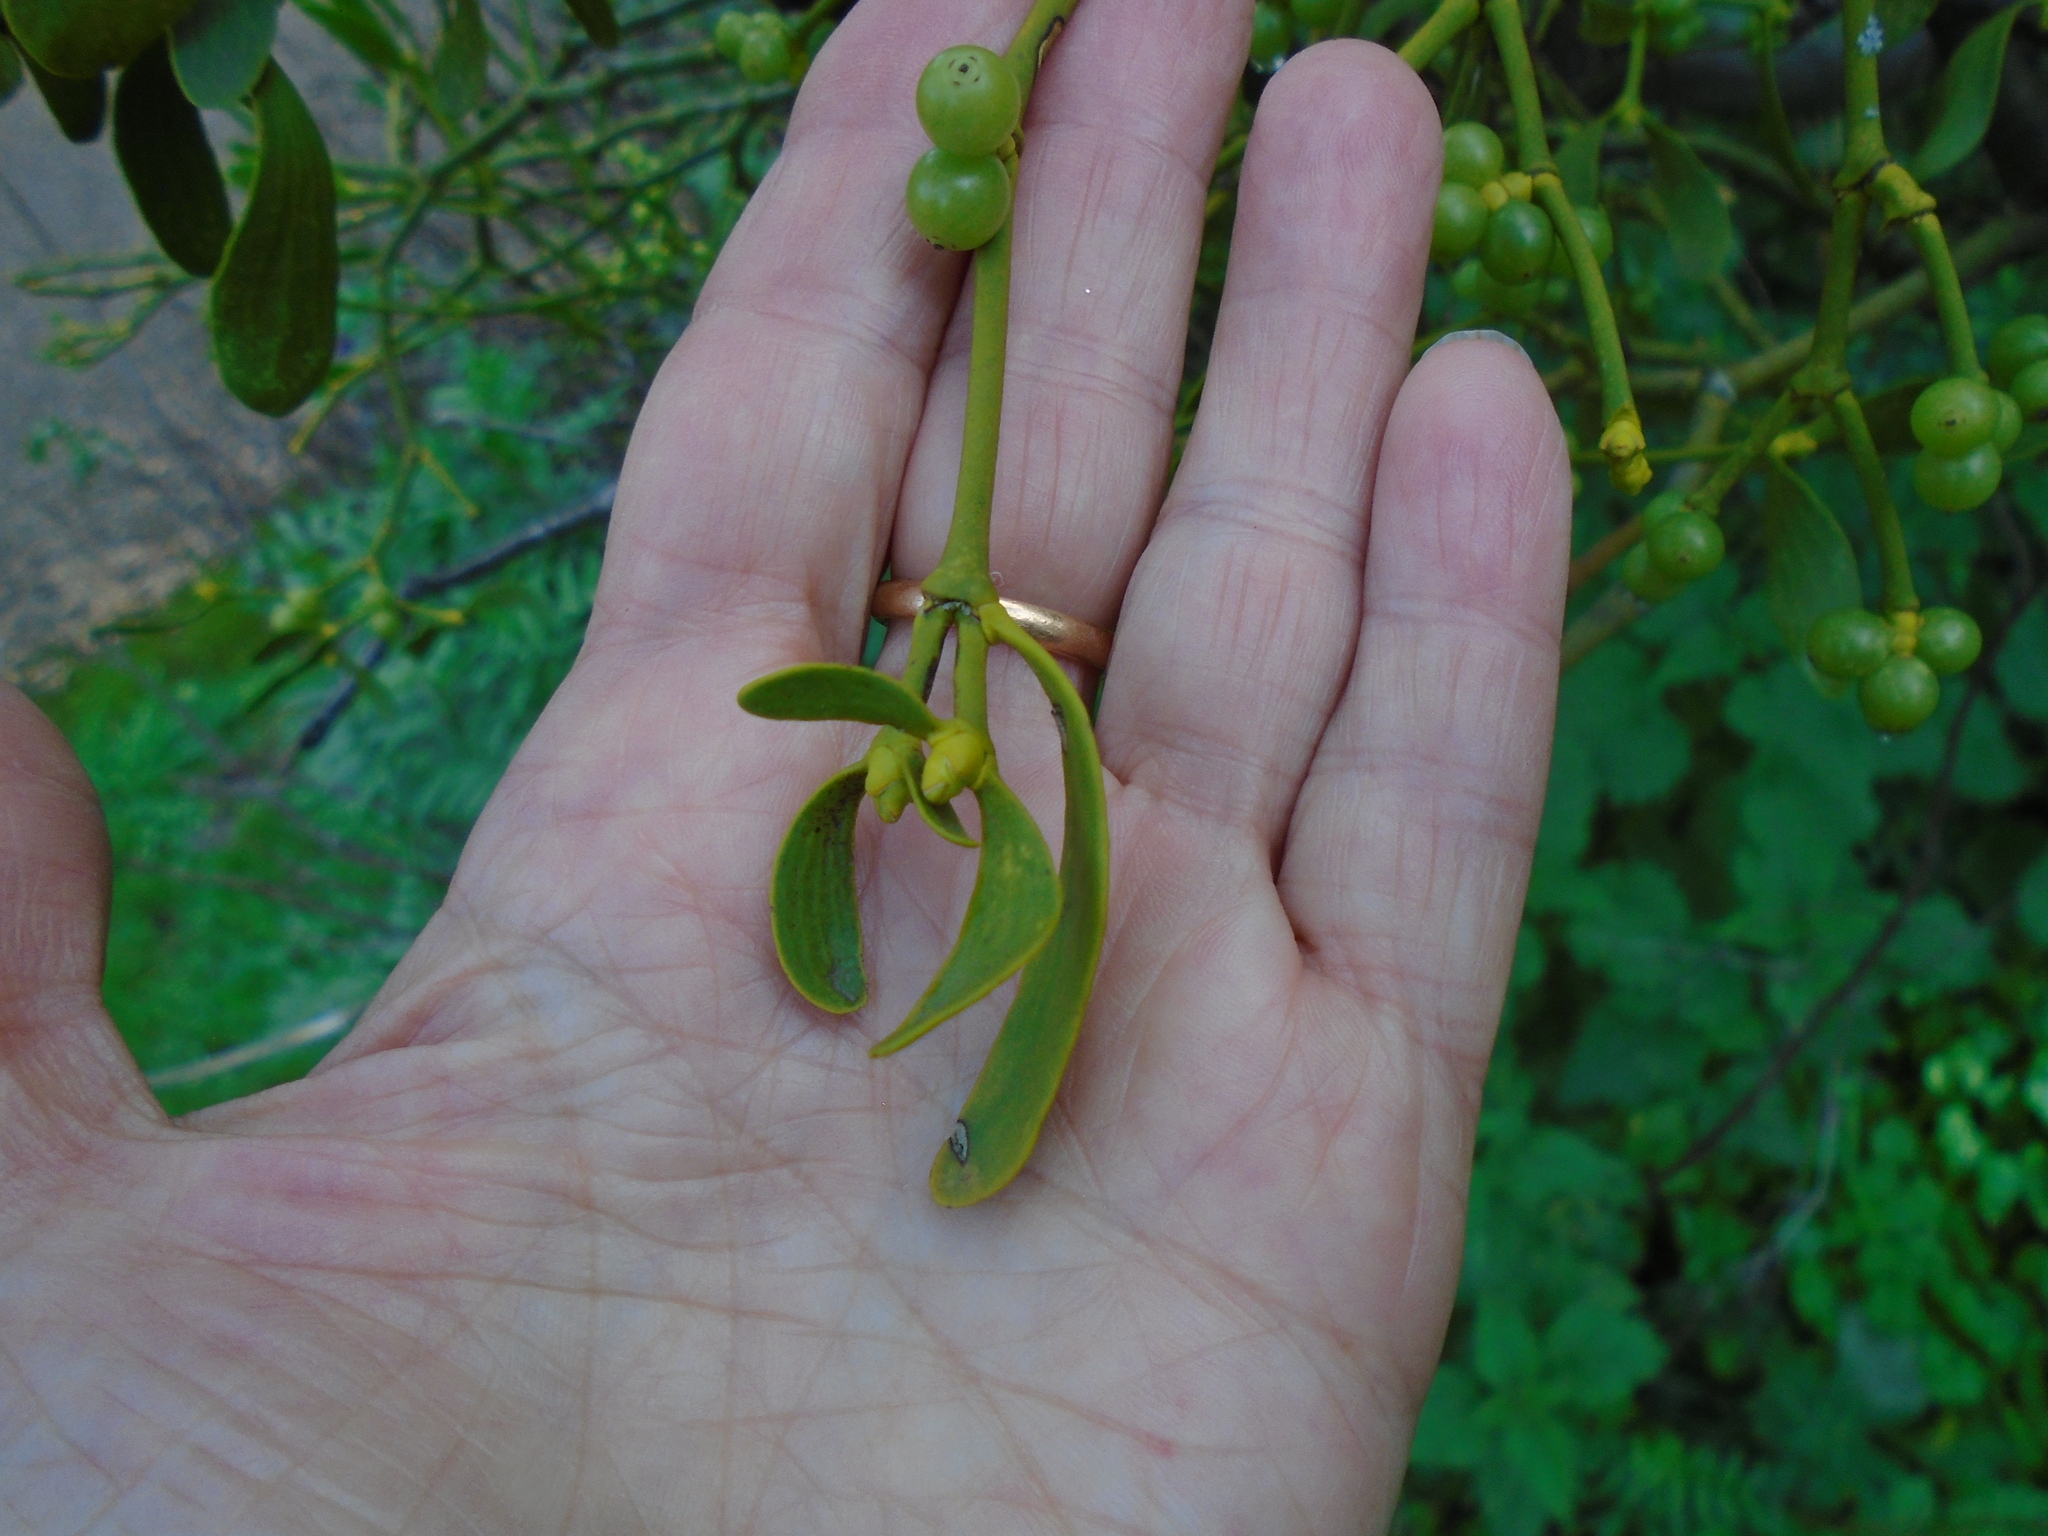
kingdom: Plantae
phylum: Tracheophyta
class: Magnoliopsida
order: Santalales
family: Viscaceae
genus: Viscum
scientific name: Viscum album
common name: Mistletoe
